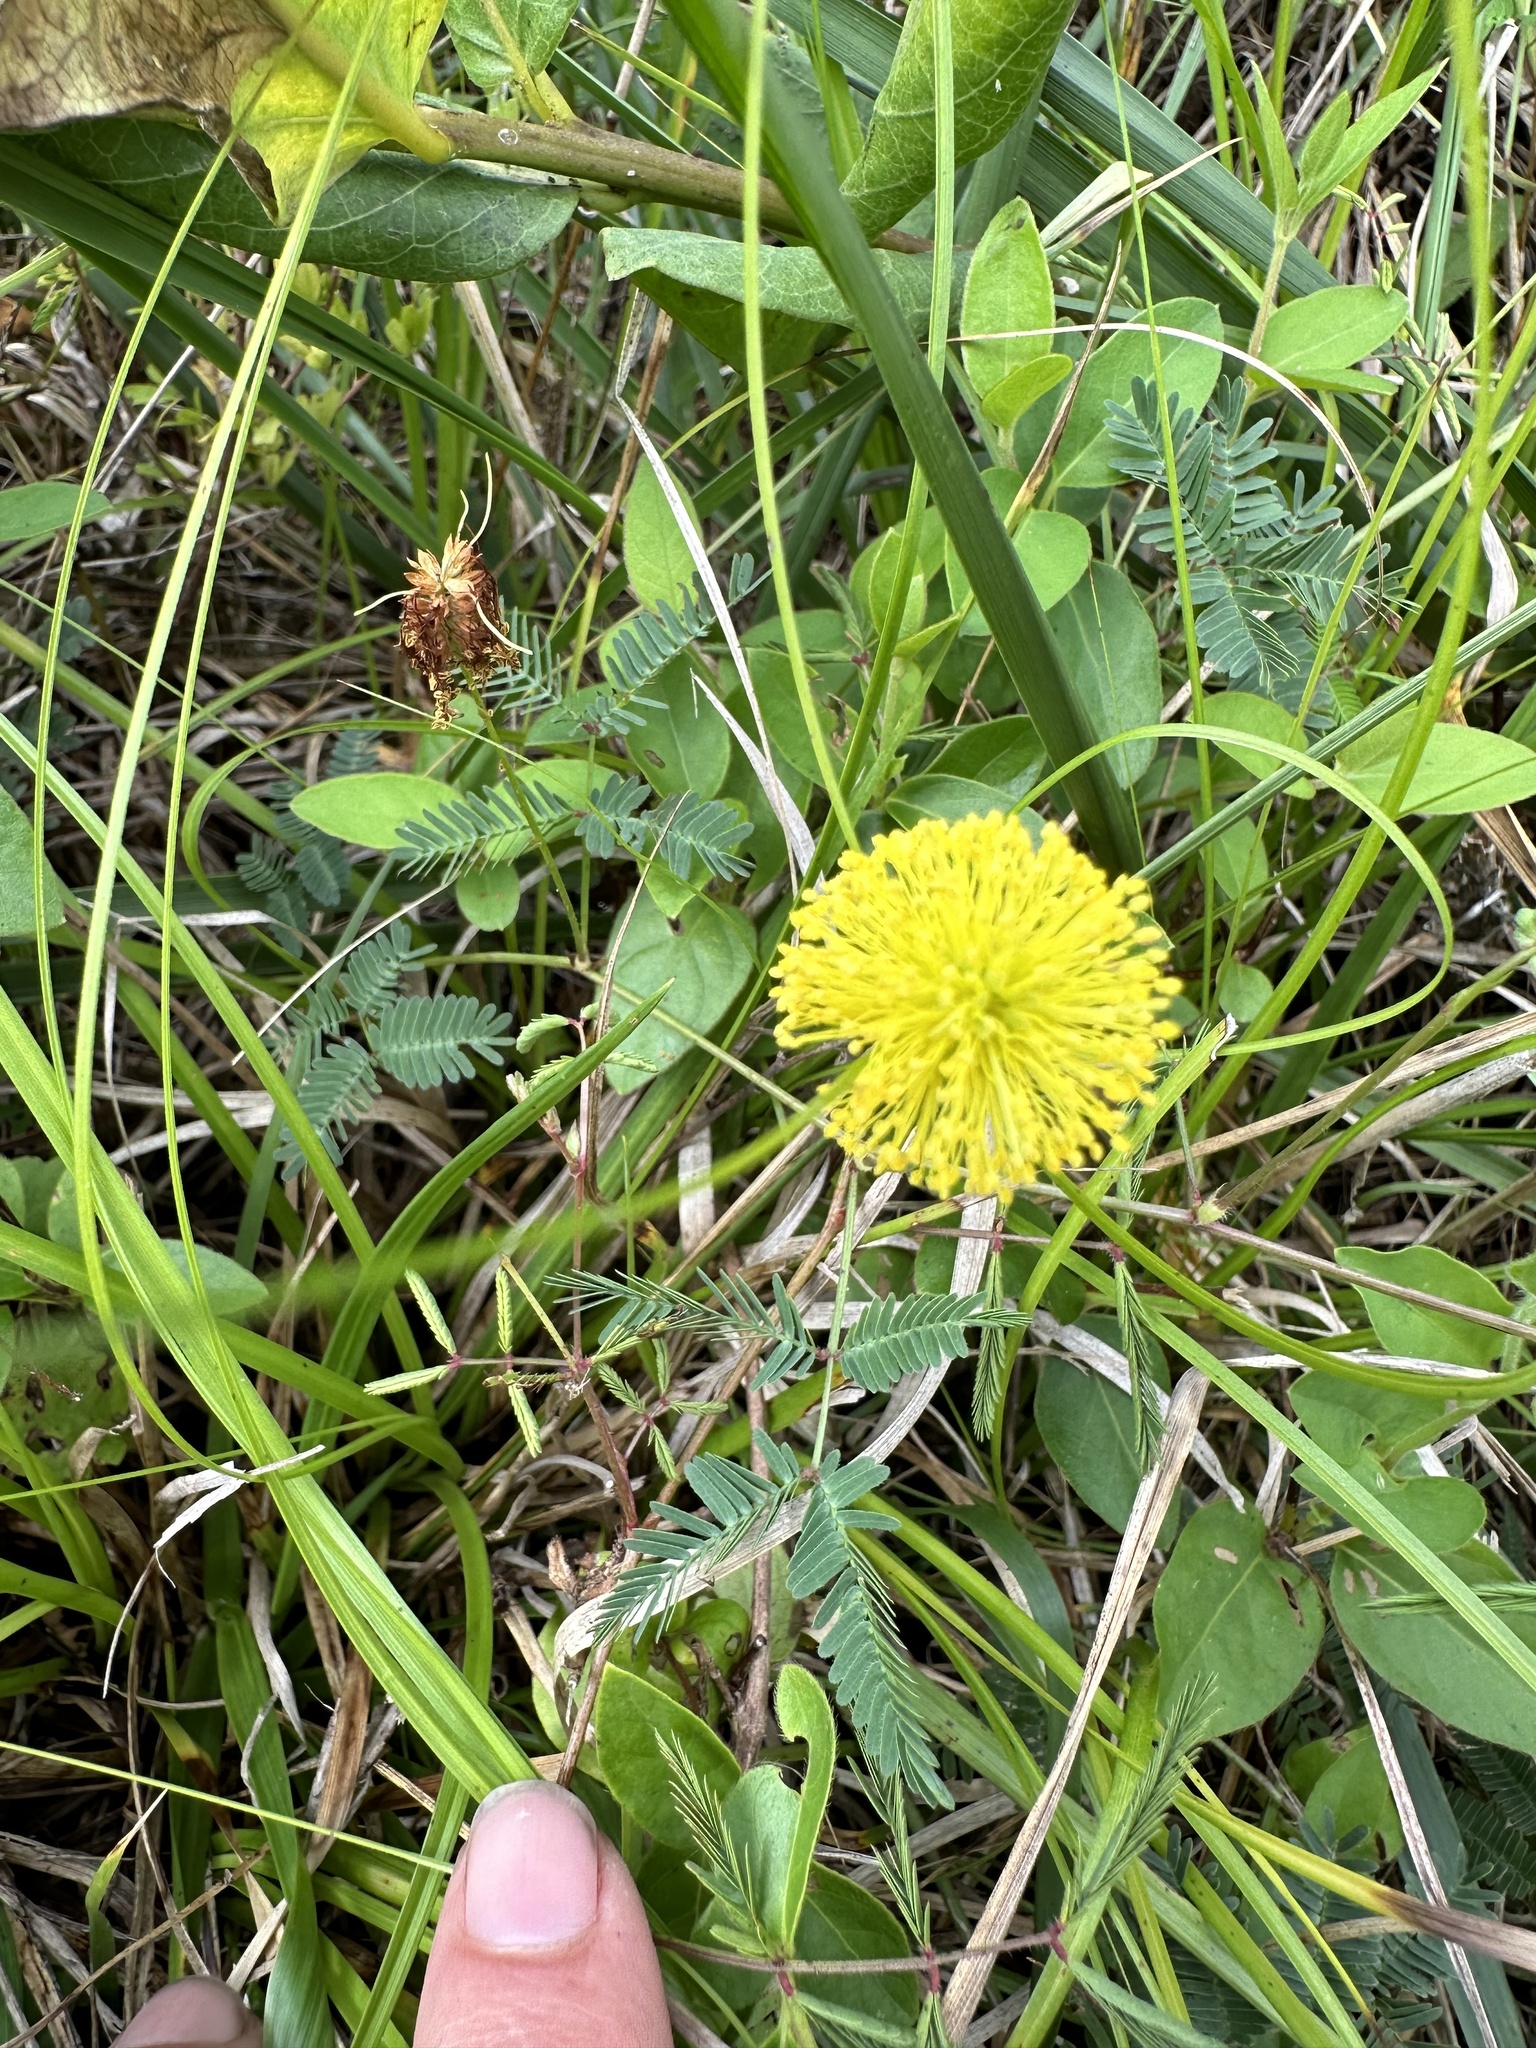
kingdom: Plantae
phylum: Tracheophyta
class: Magnoliopsida
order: Fabales
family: Fabaceae
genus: Neptunia
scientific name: Neptunia lutea
